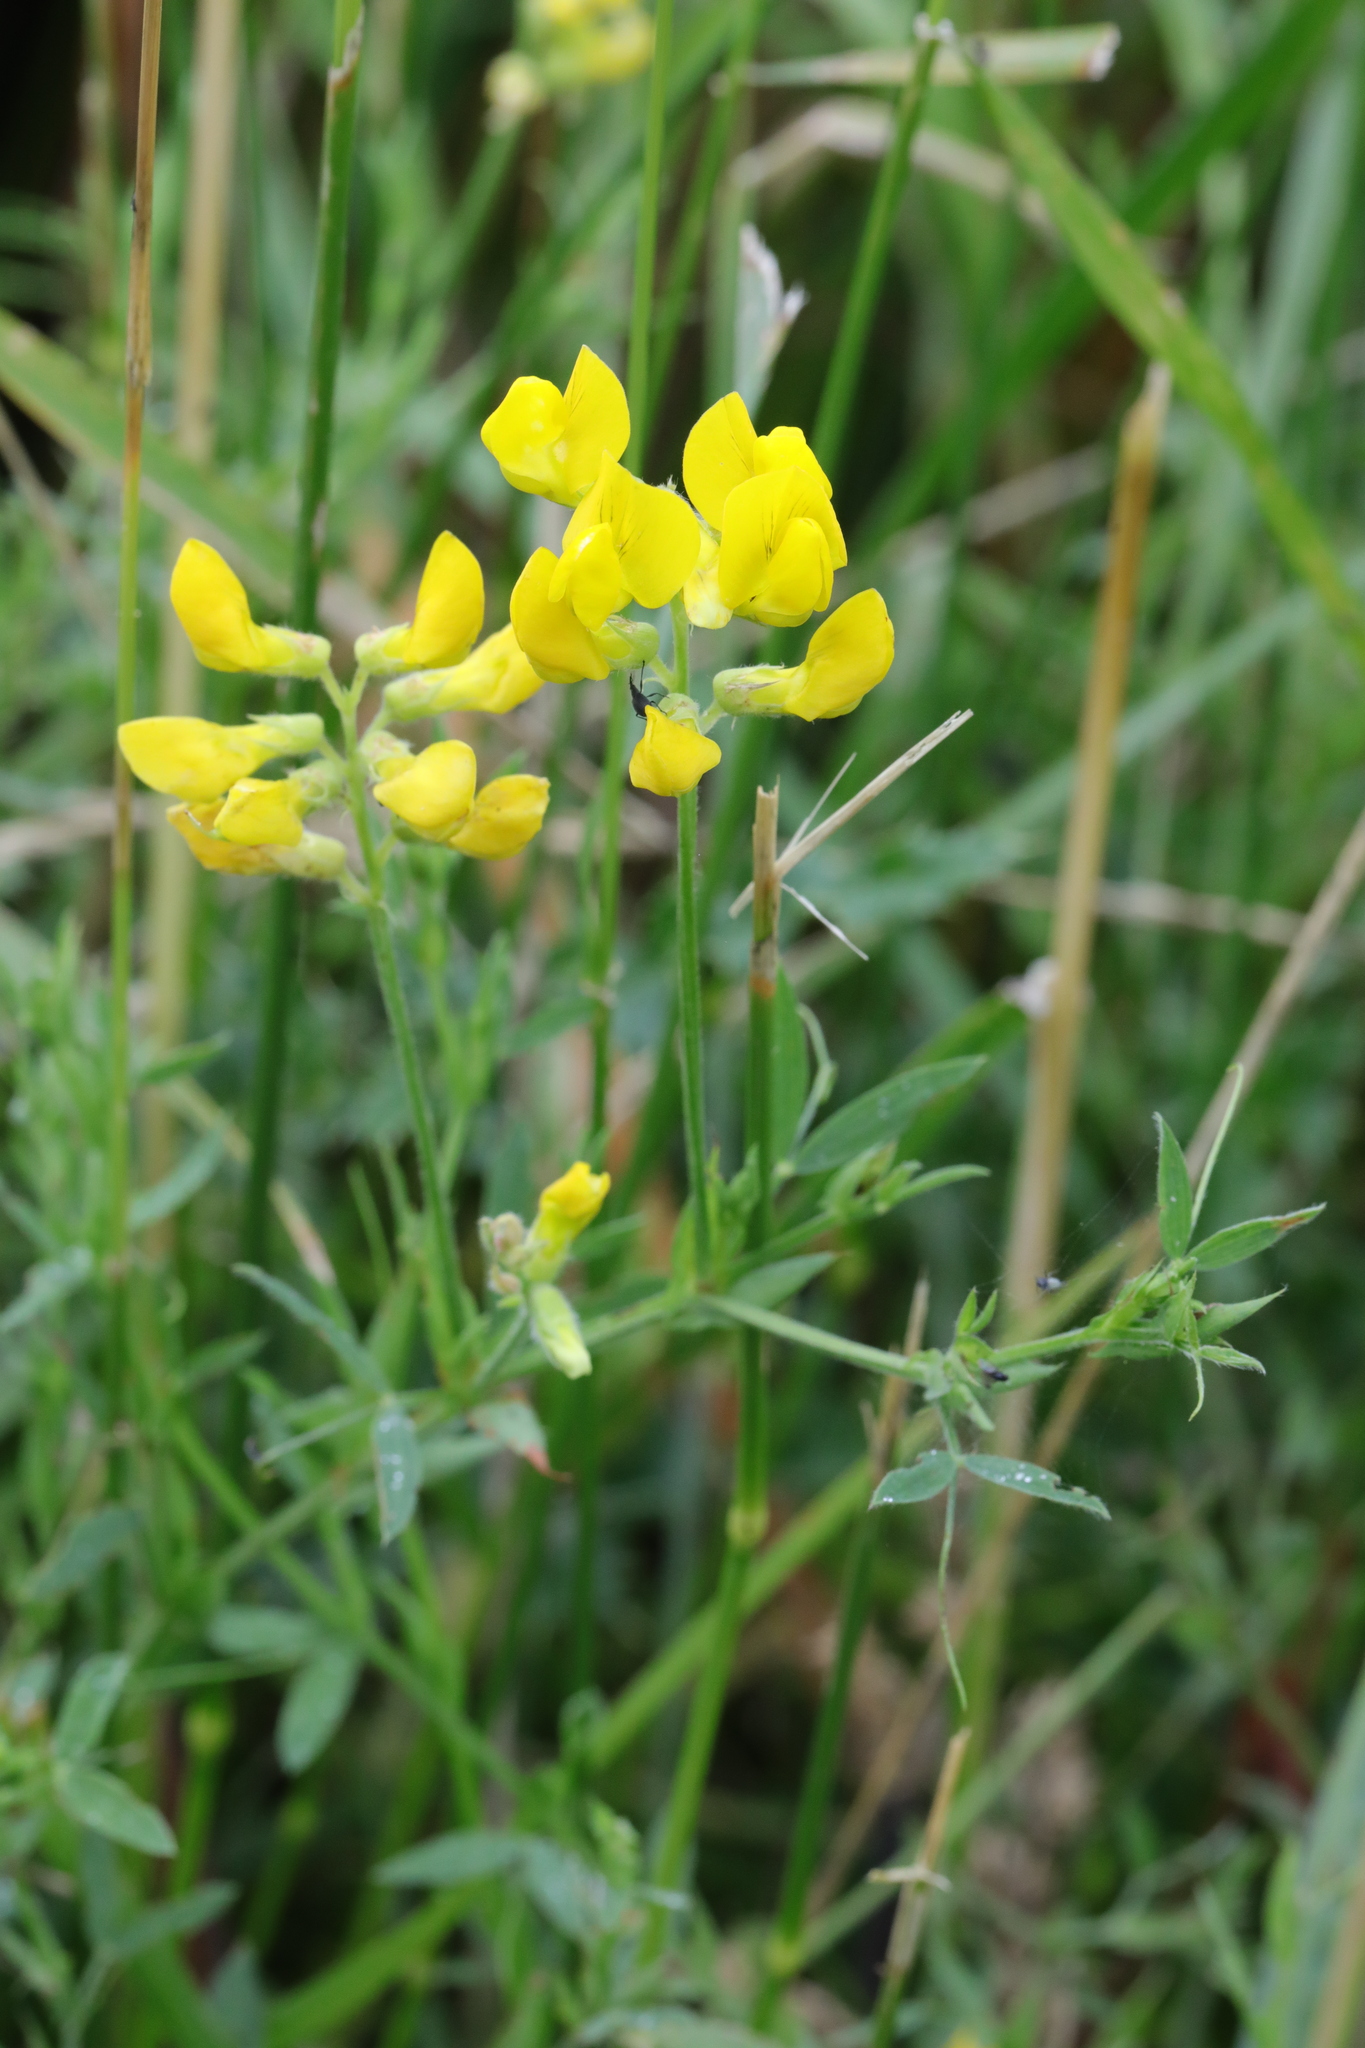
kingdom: Plantae
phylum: Tracheophyta
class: Magnoliopsida
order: Fabales
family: Fabaceae
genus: Lathyrus
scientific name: Lathyrus pratensis
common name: Meadow vetchling
